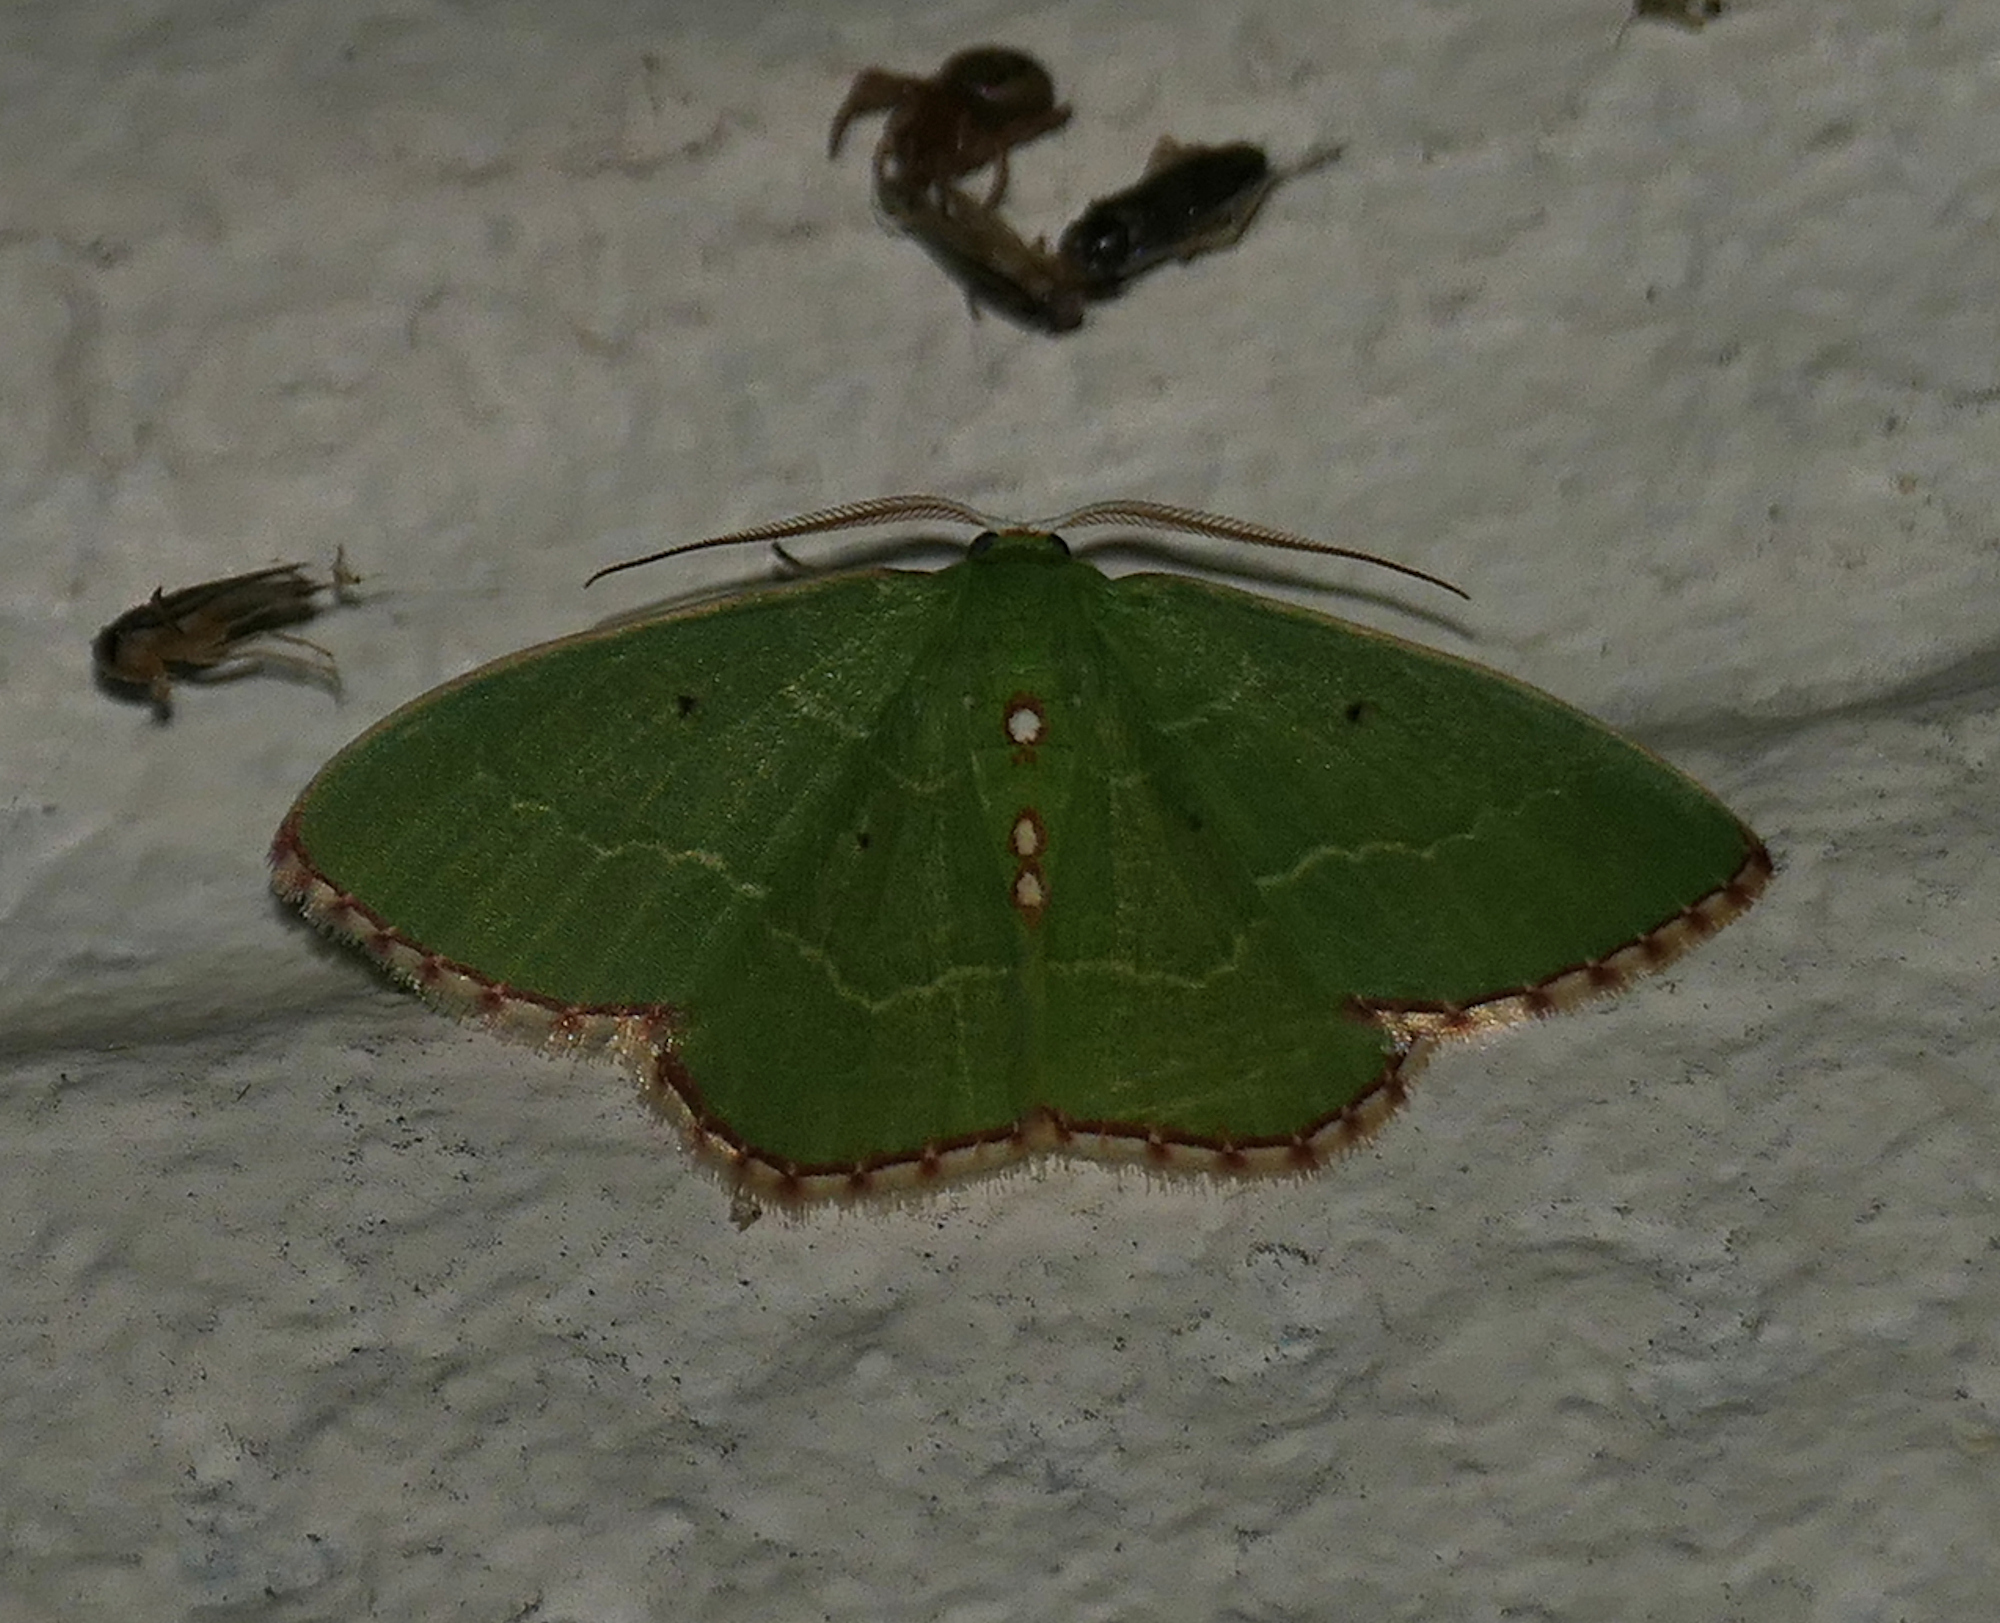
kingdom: Animalia
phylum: Arthropoda
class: Insecta
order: Lepidoptera
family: Geometridae
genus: Nemoria
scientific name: Nemoria lixaria
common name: Red-bordered emerald
